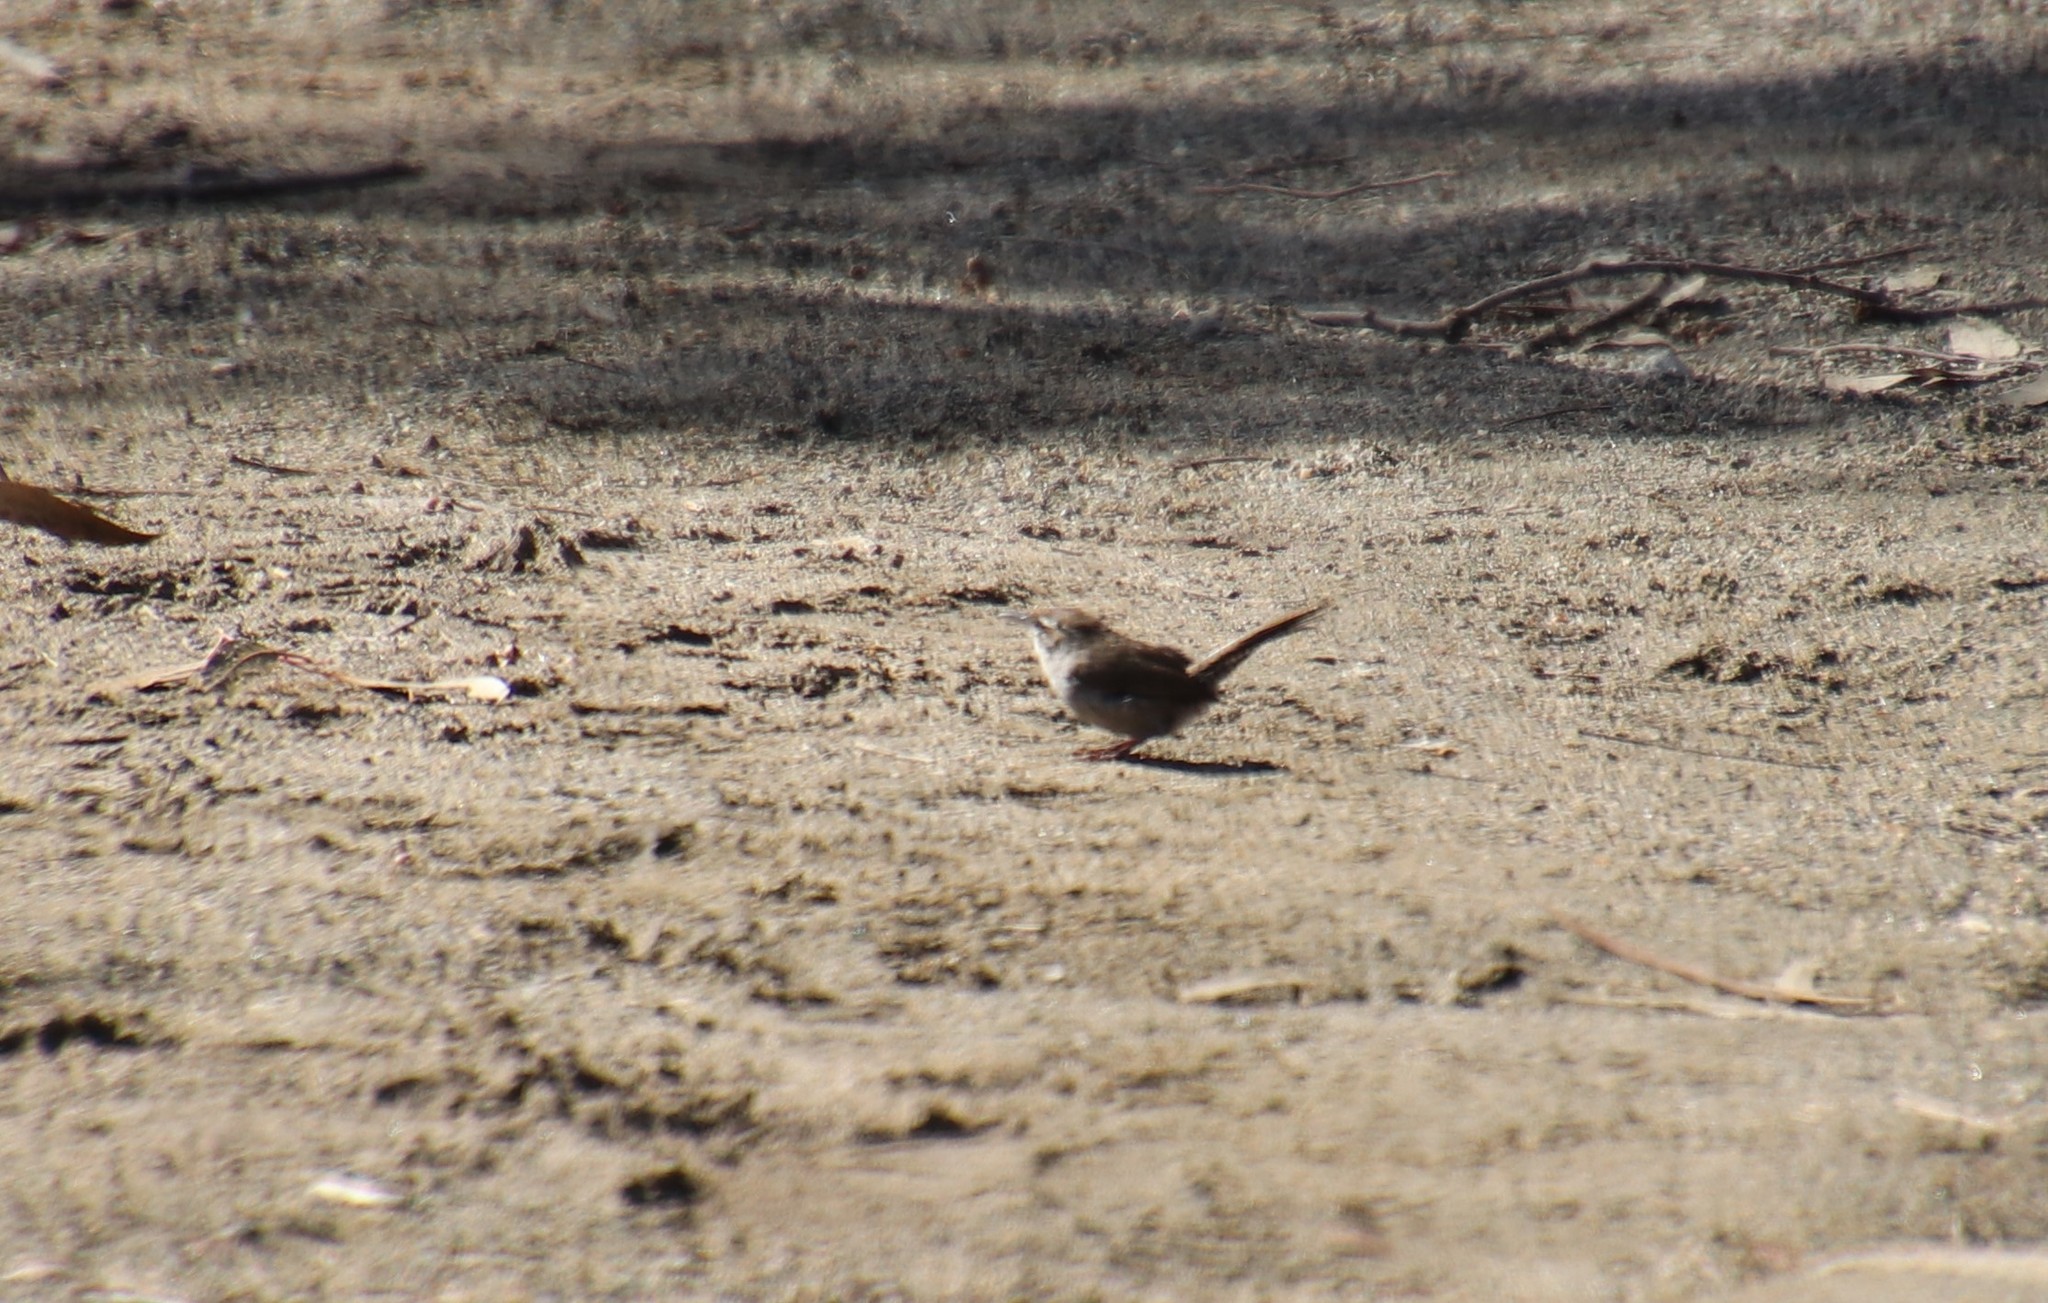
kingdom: Animalia
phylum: Chordata
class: Aves
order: Passeriformes
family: Troglodytidae
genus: Thryomanes
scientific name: Thryomanes bewickii
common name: Bewick's wren
